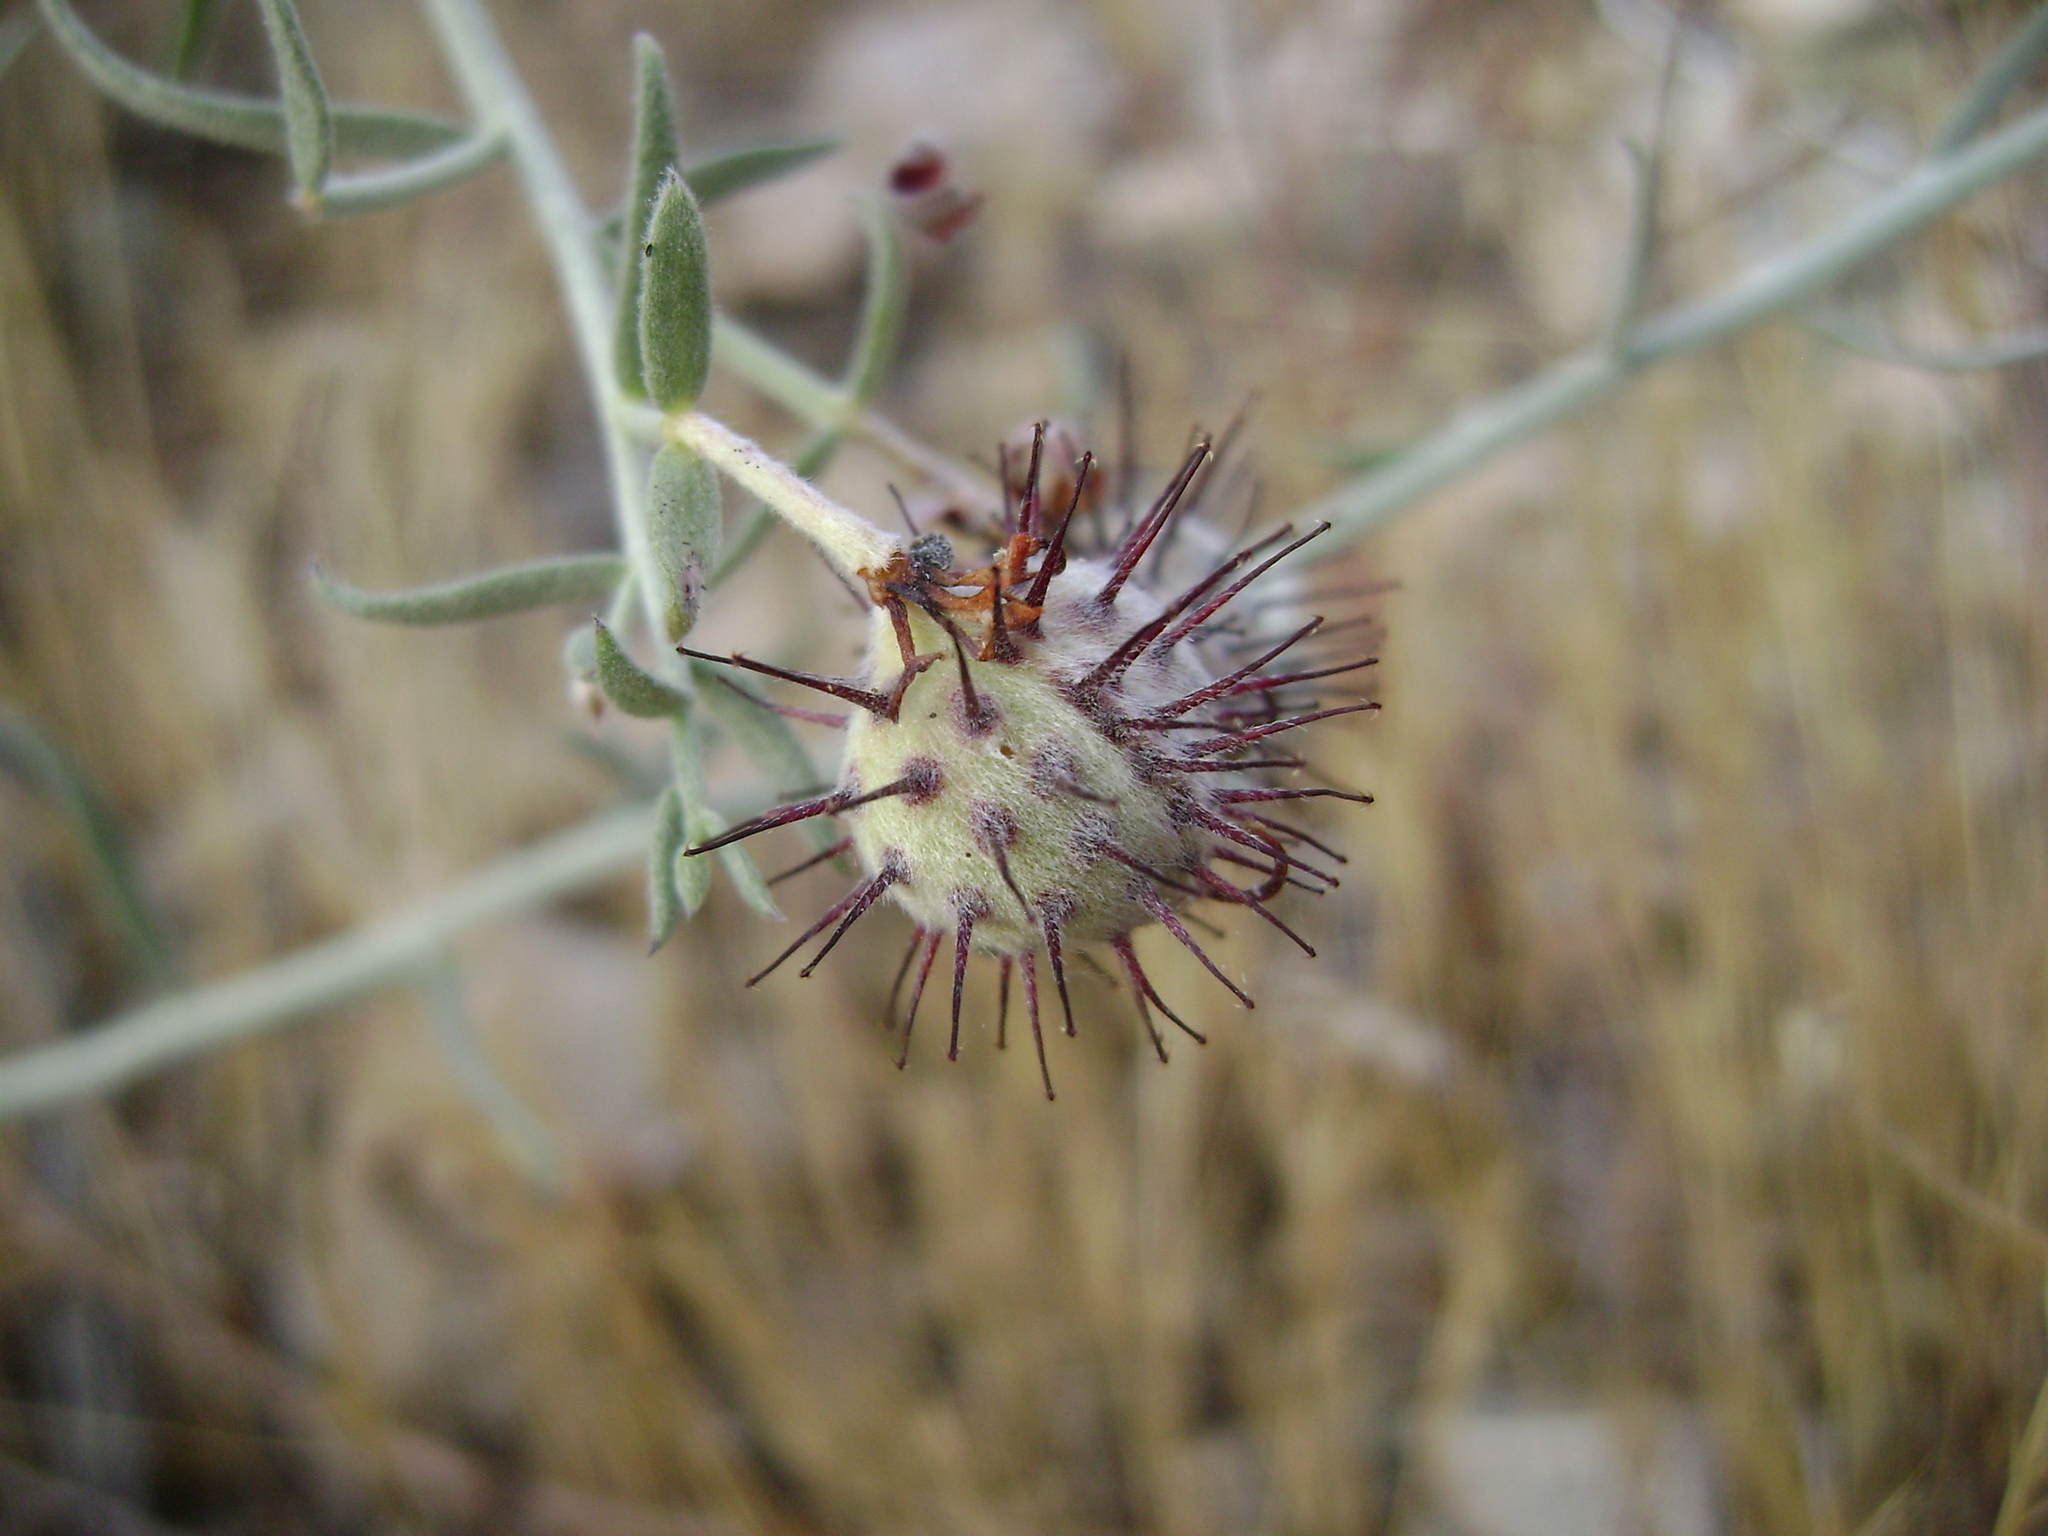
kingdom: Plantae
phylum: Tracheophyta
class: Magnoliopsida
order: Zygophyllales
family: Krameriaceae
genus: Krameria
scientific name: Krameria bicolor
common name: White ratany
